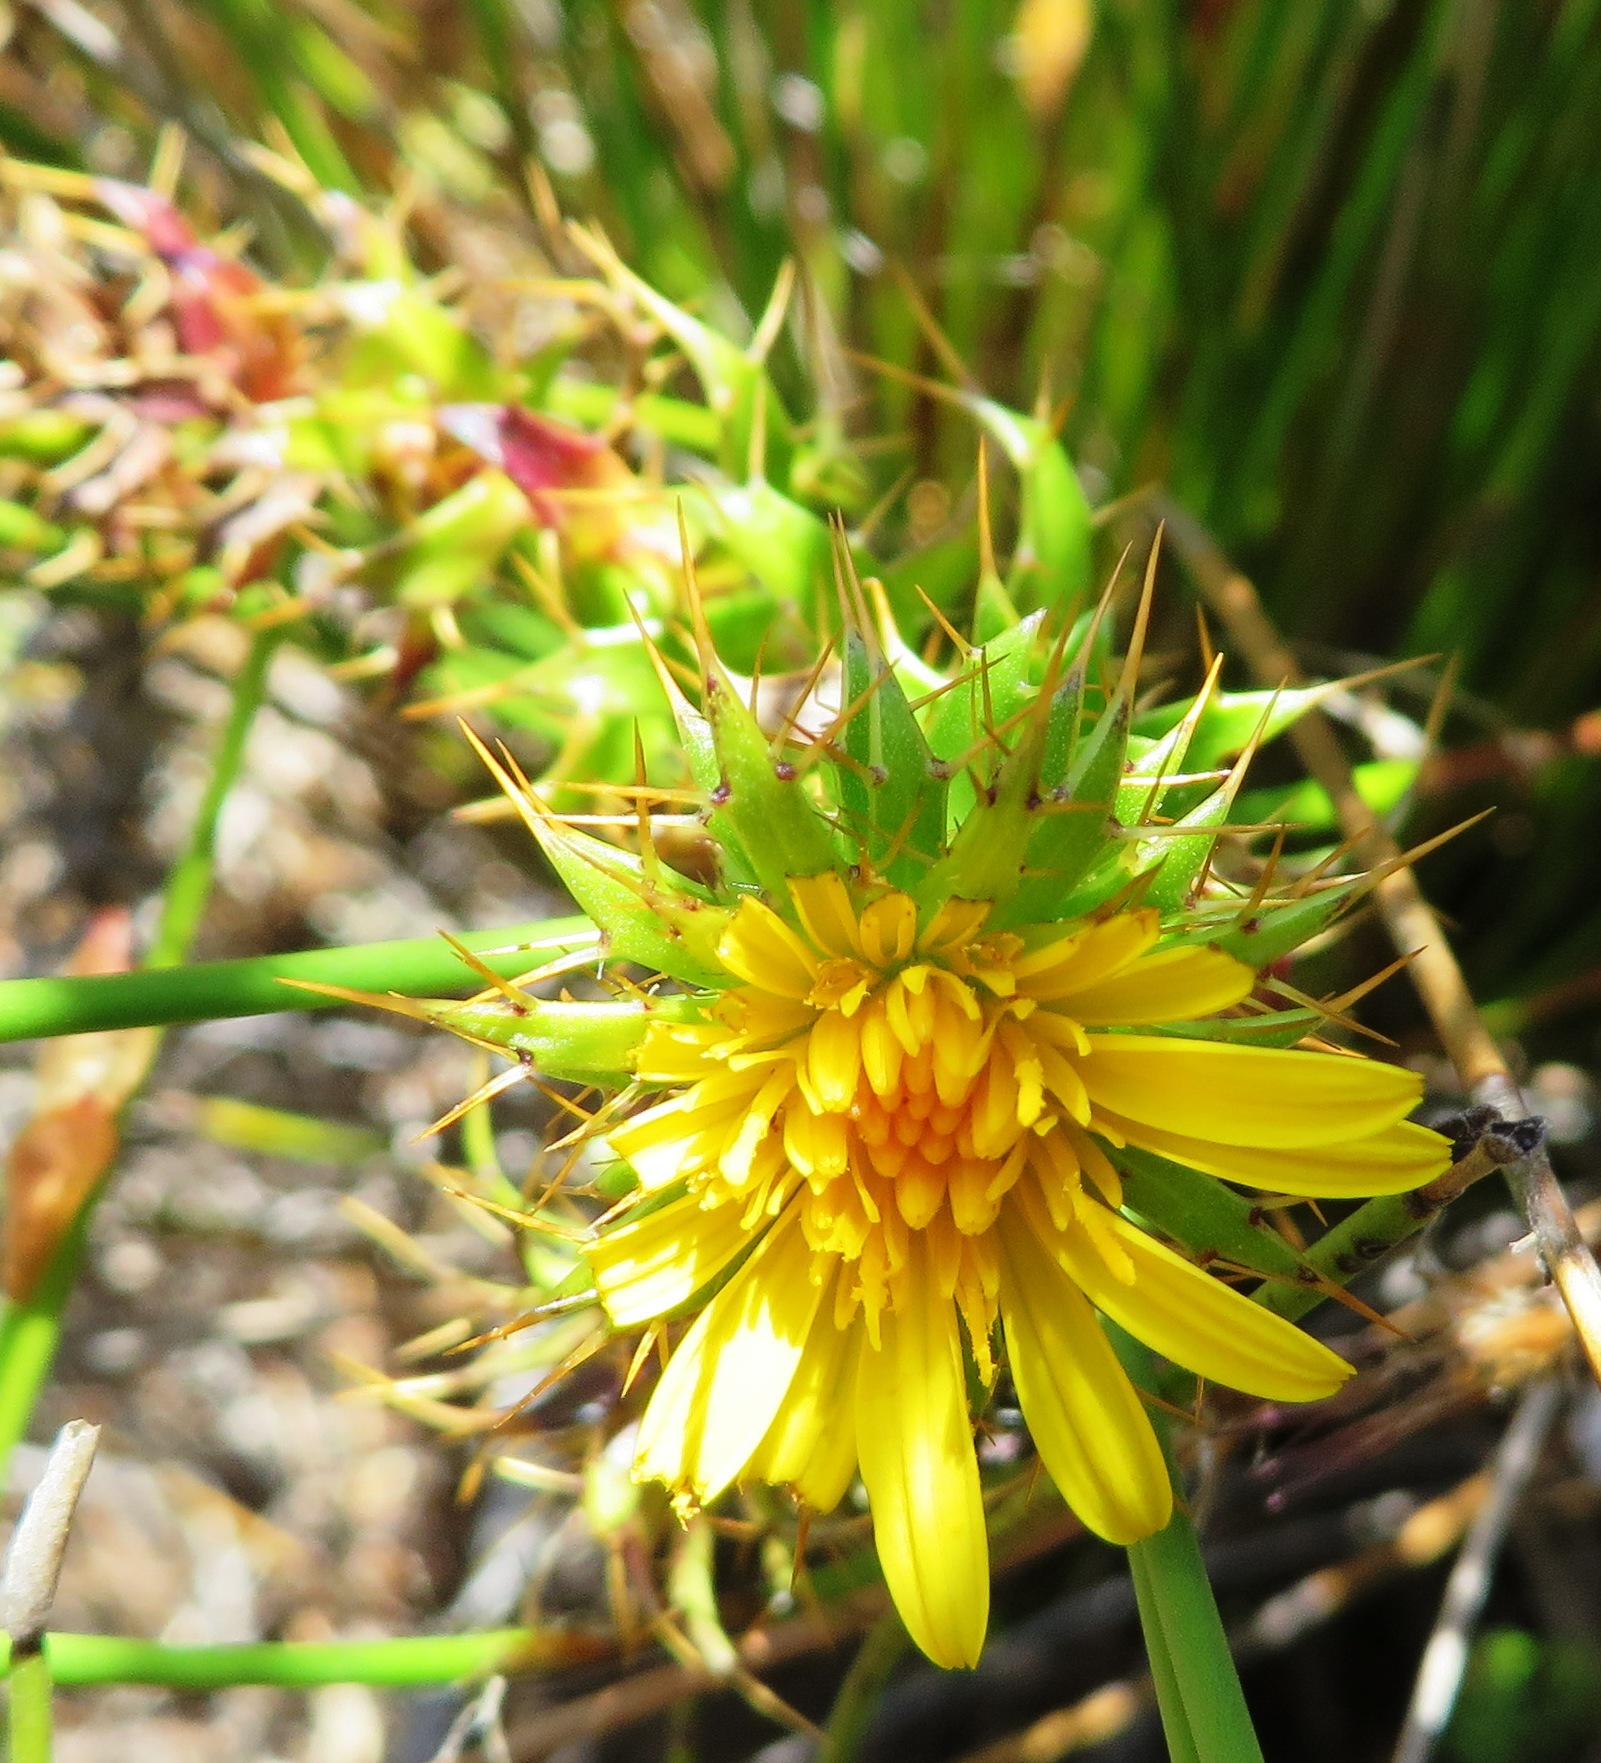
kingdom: Plantae
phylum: Tracheophyta
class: Magnoliopsida
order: Asterales
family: Asteraceae
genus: Cullumia
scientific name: Cullumia setosa
